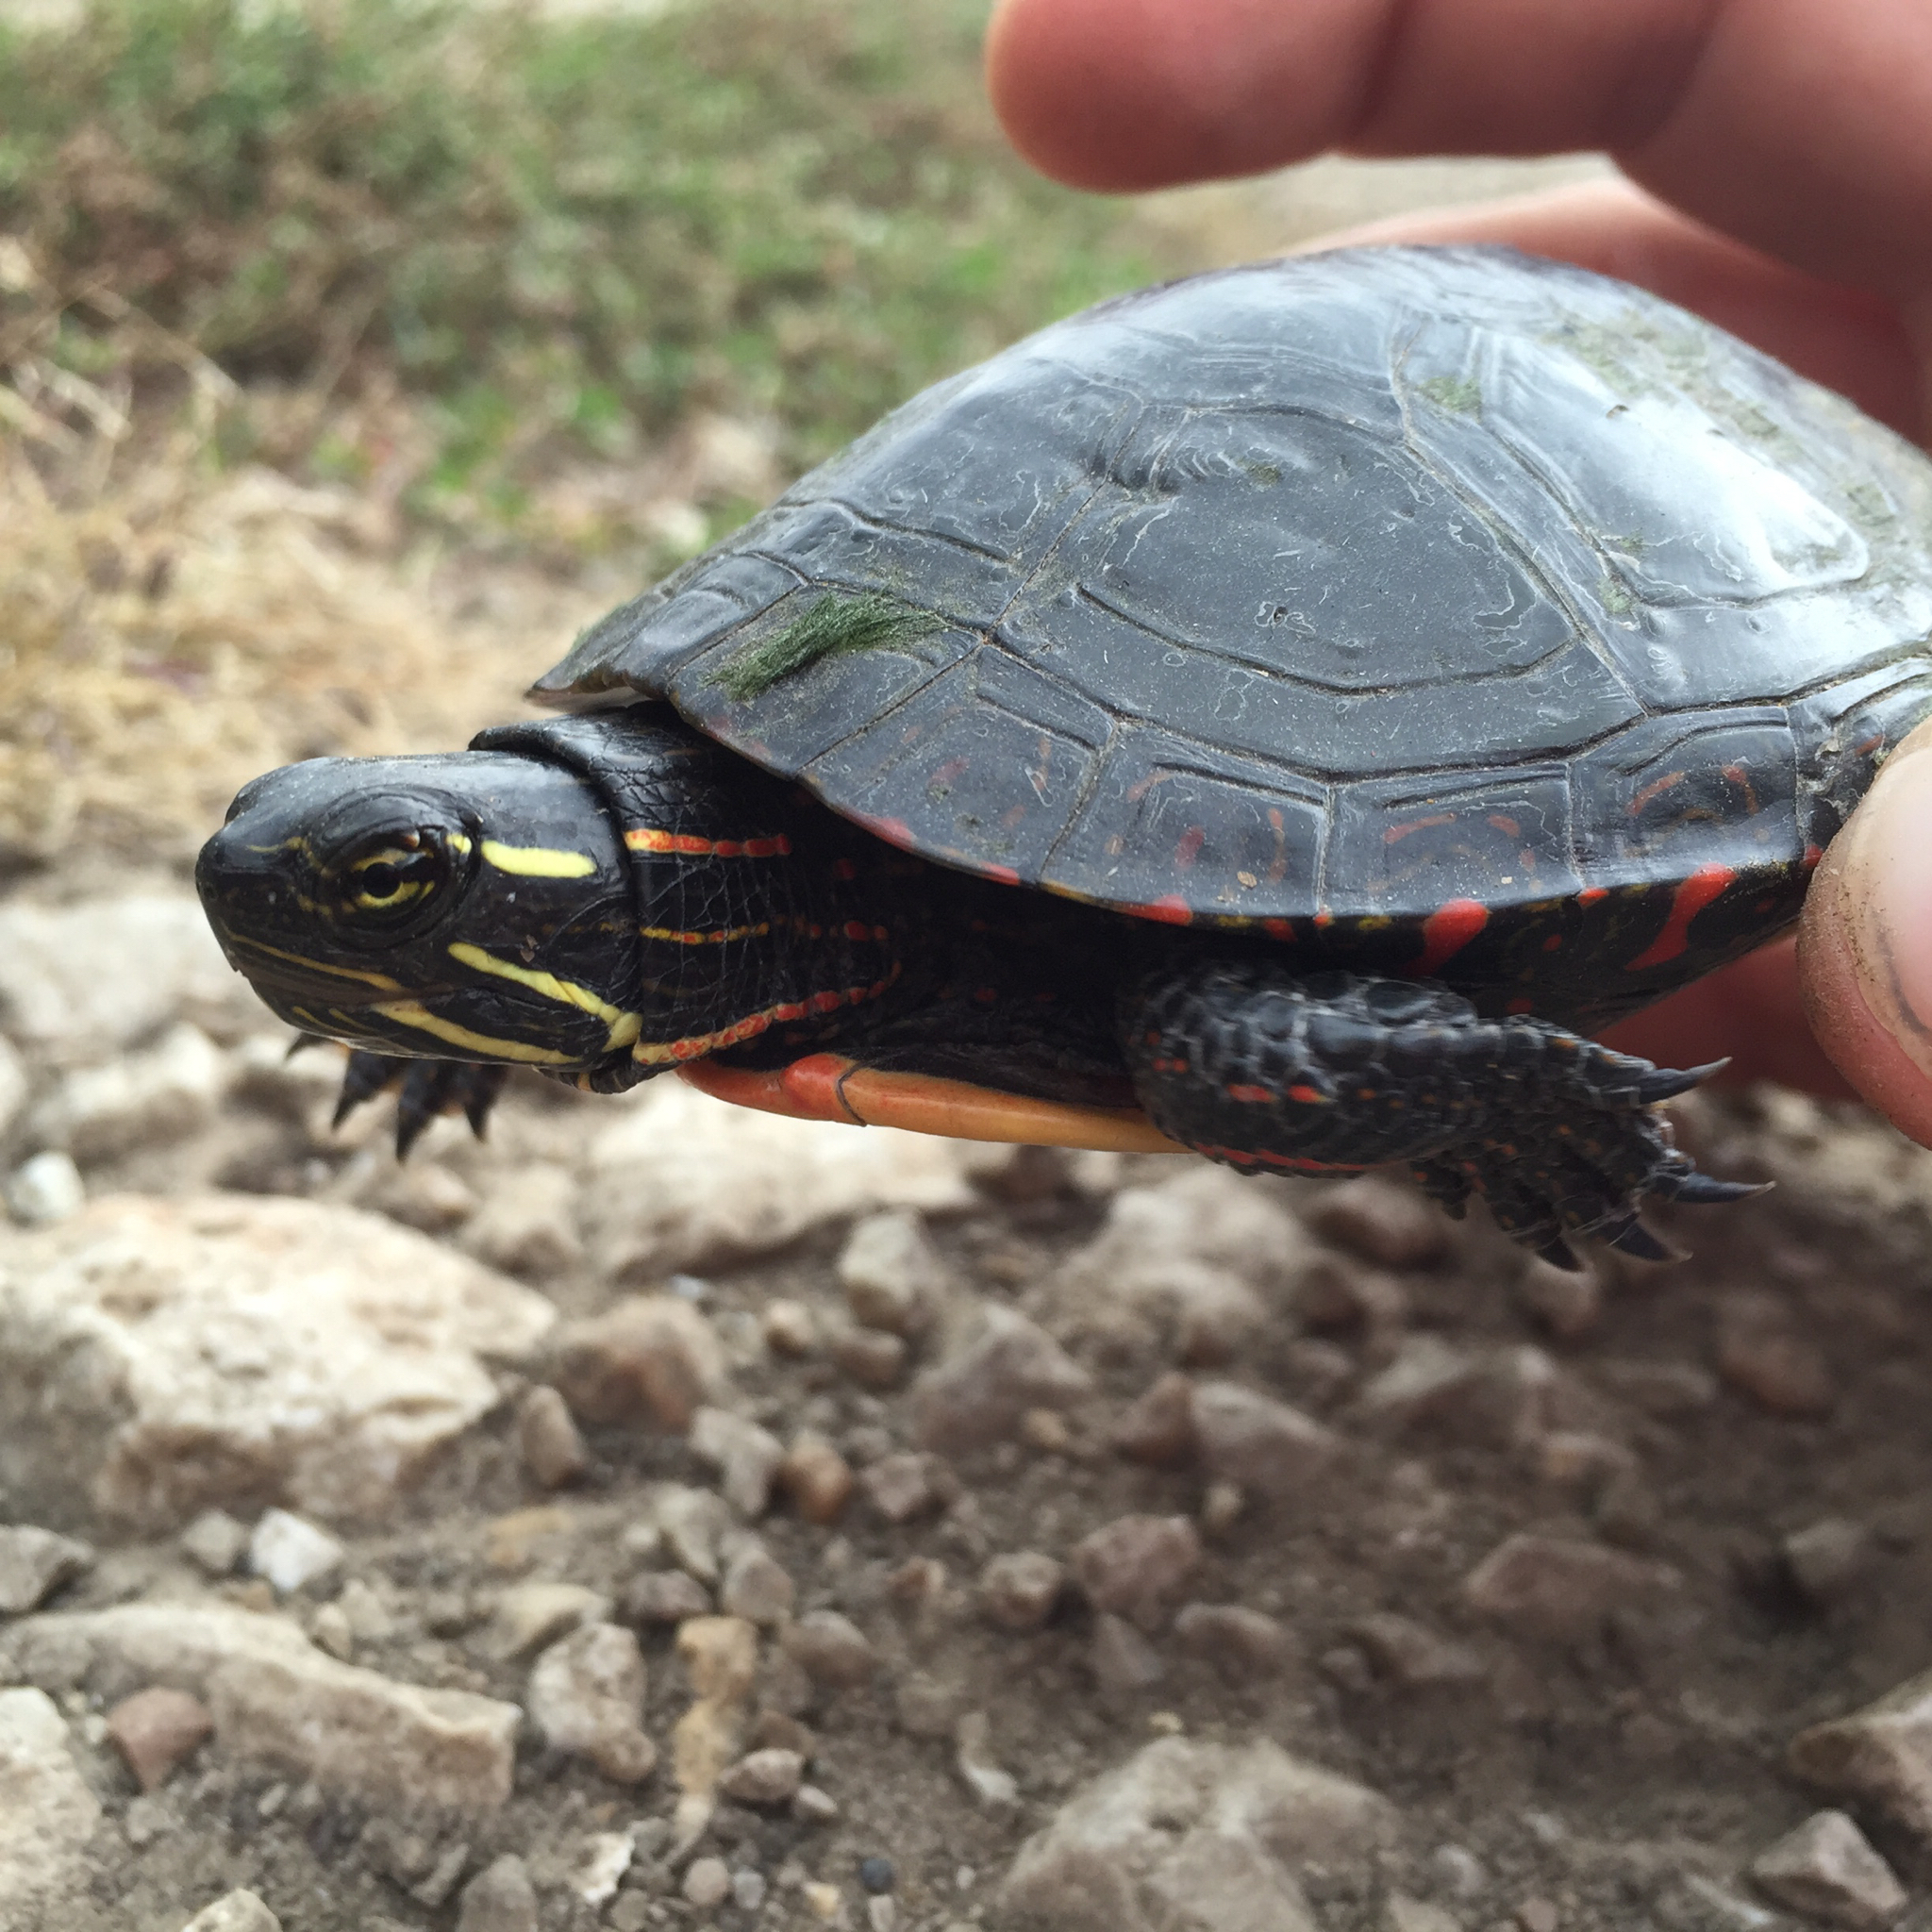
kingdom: Animalia
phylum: Chordata
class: Testudines
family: Emydidae
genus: Chrysemys
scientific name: Chrysemys picta
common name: Painted turtle
